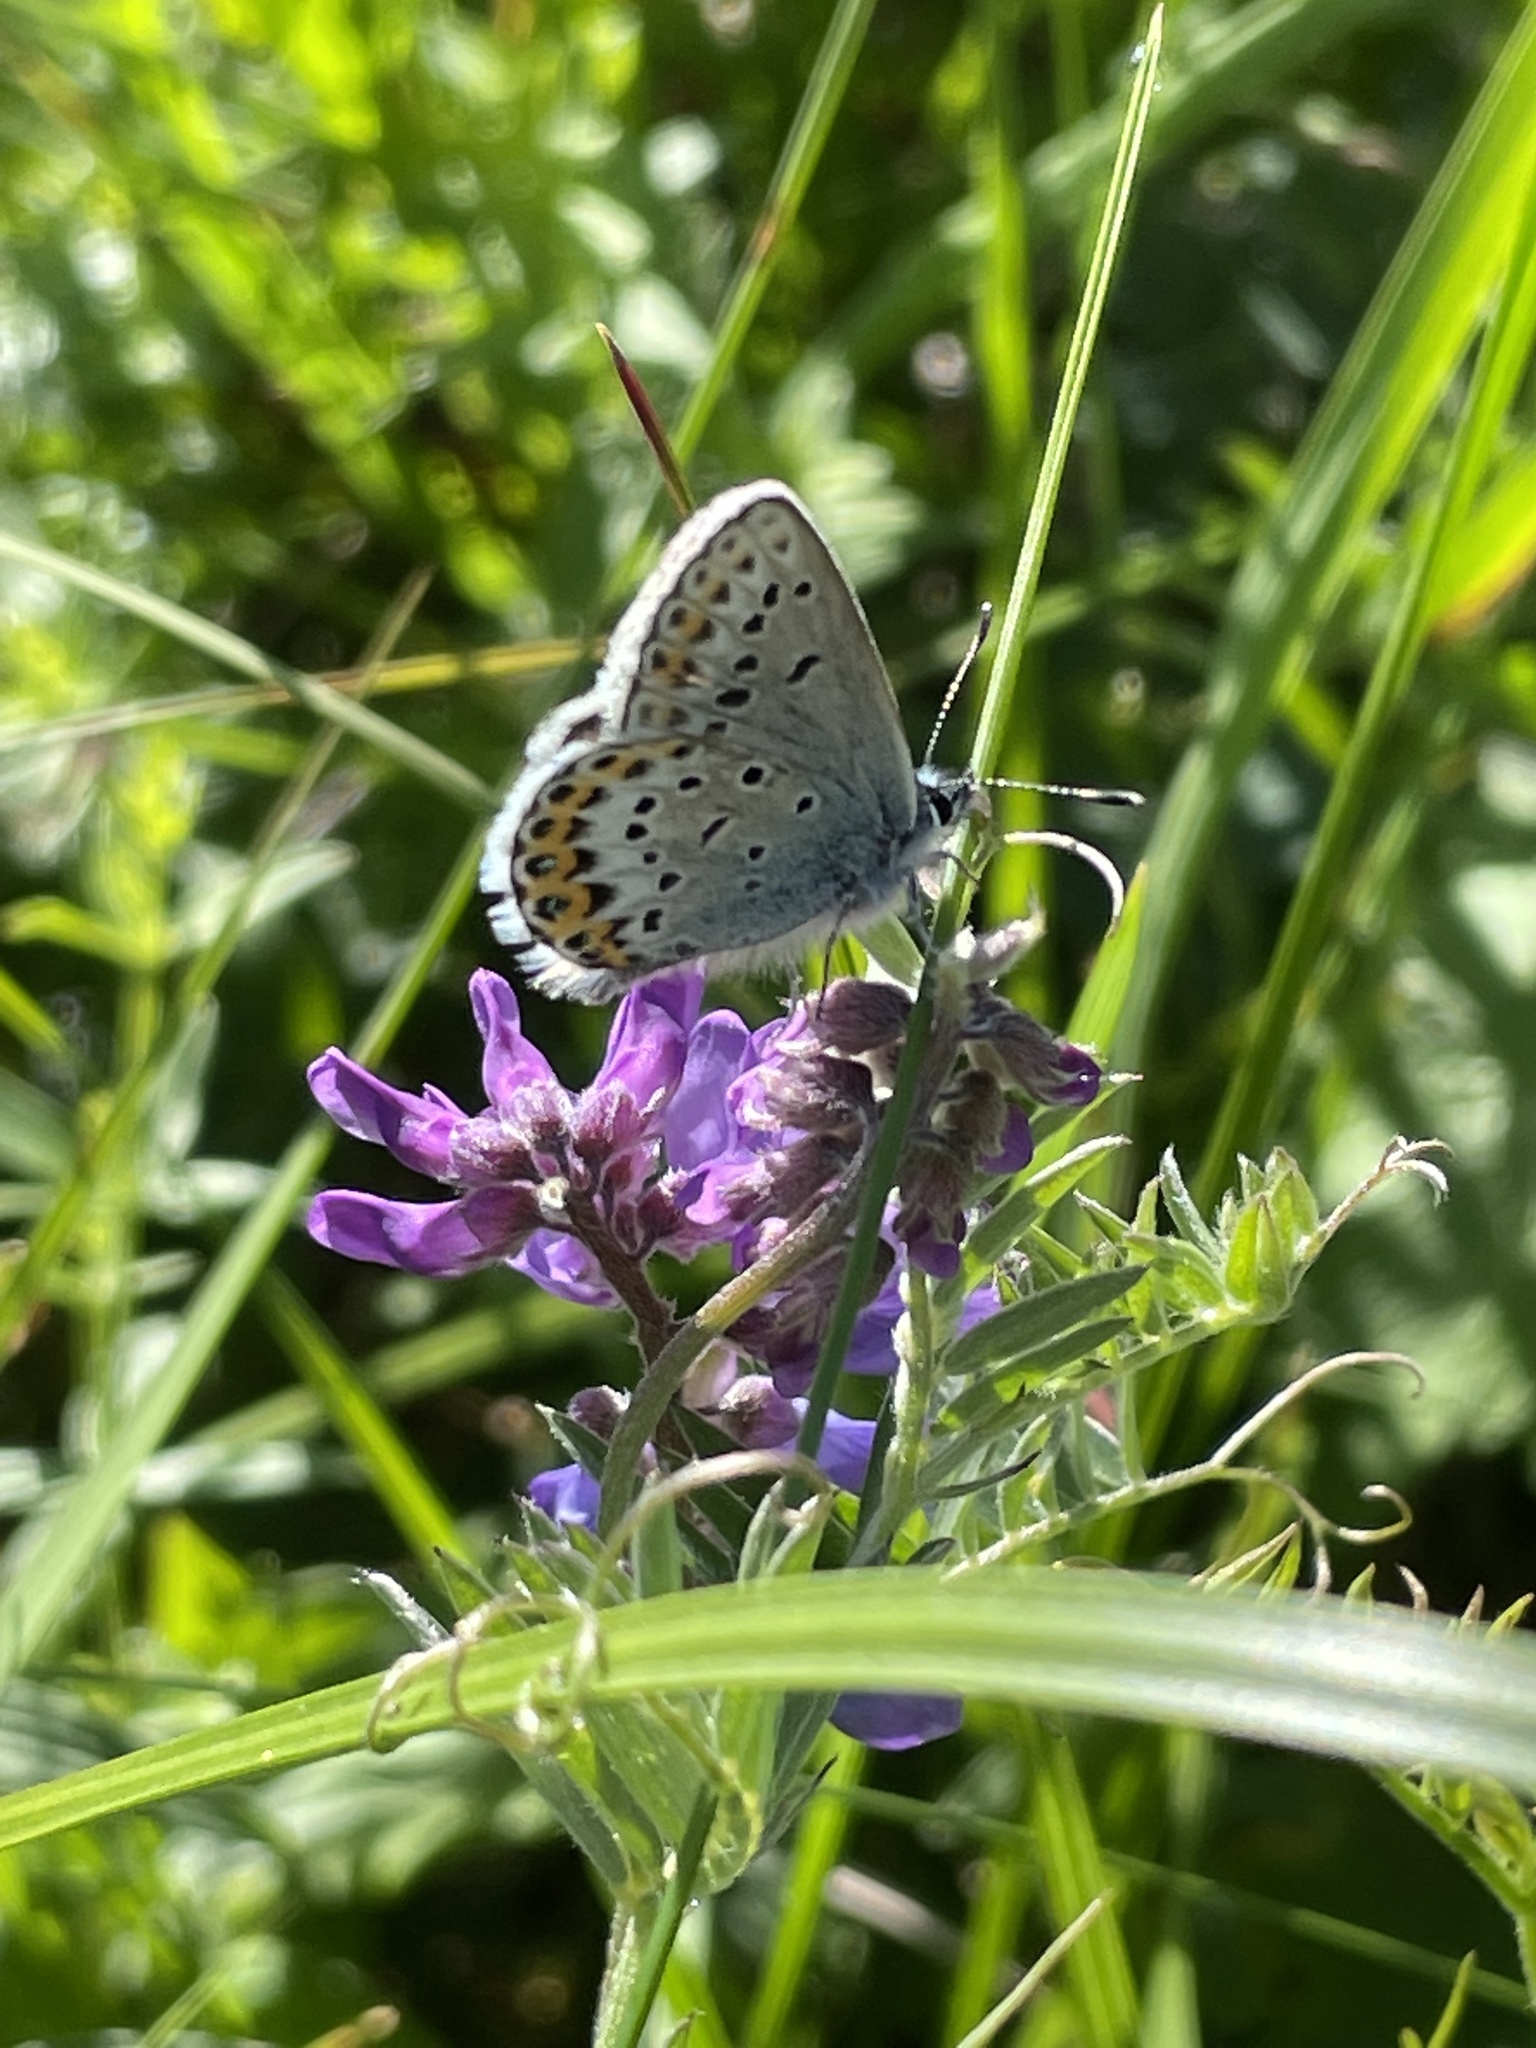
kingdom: Animalia
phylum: Arthropoda
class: Insecta
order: Lepidoptera
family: Lycaenidae
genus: Lycaeides
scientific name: Lycaeides idas
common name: Northern blue
